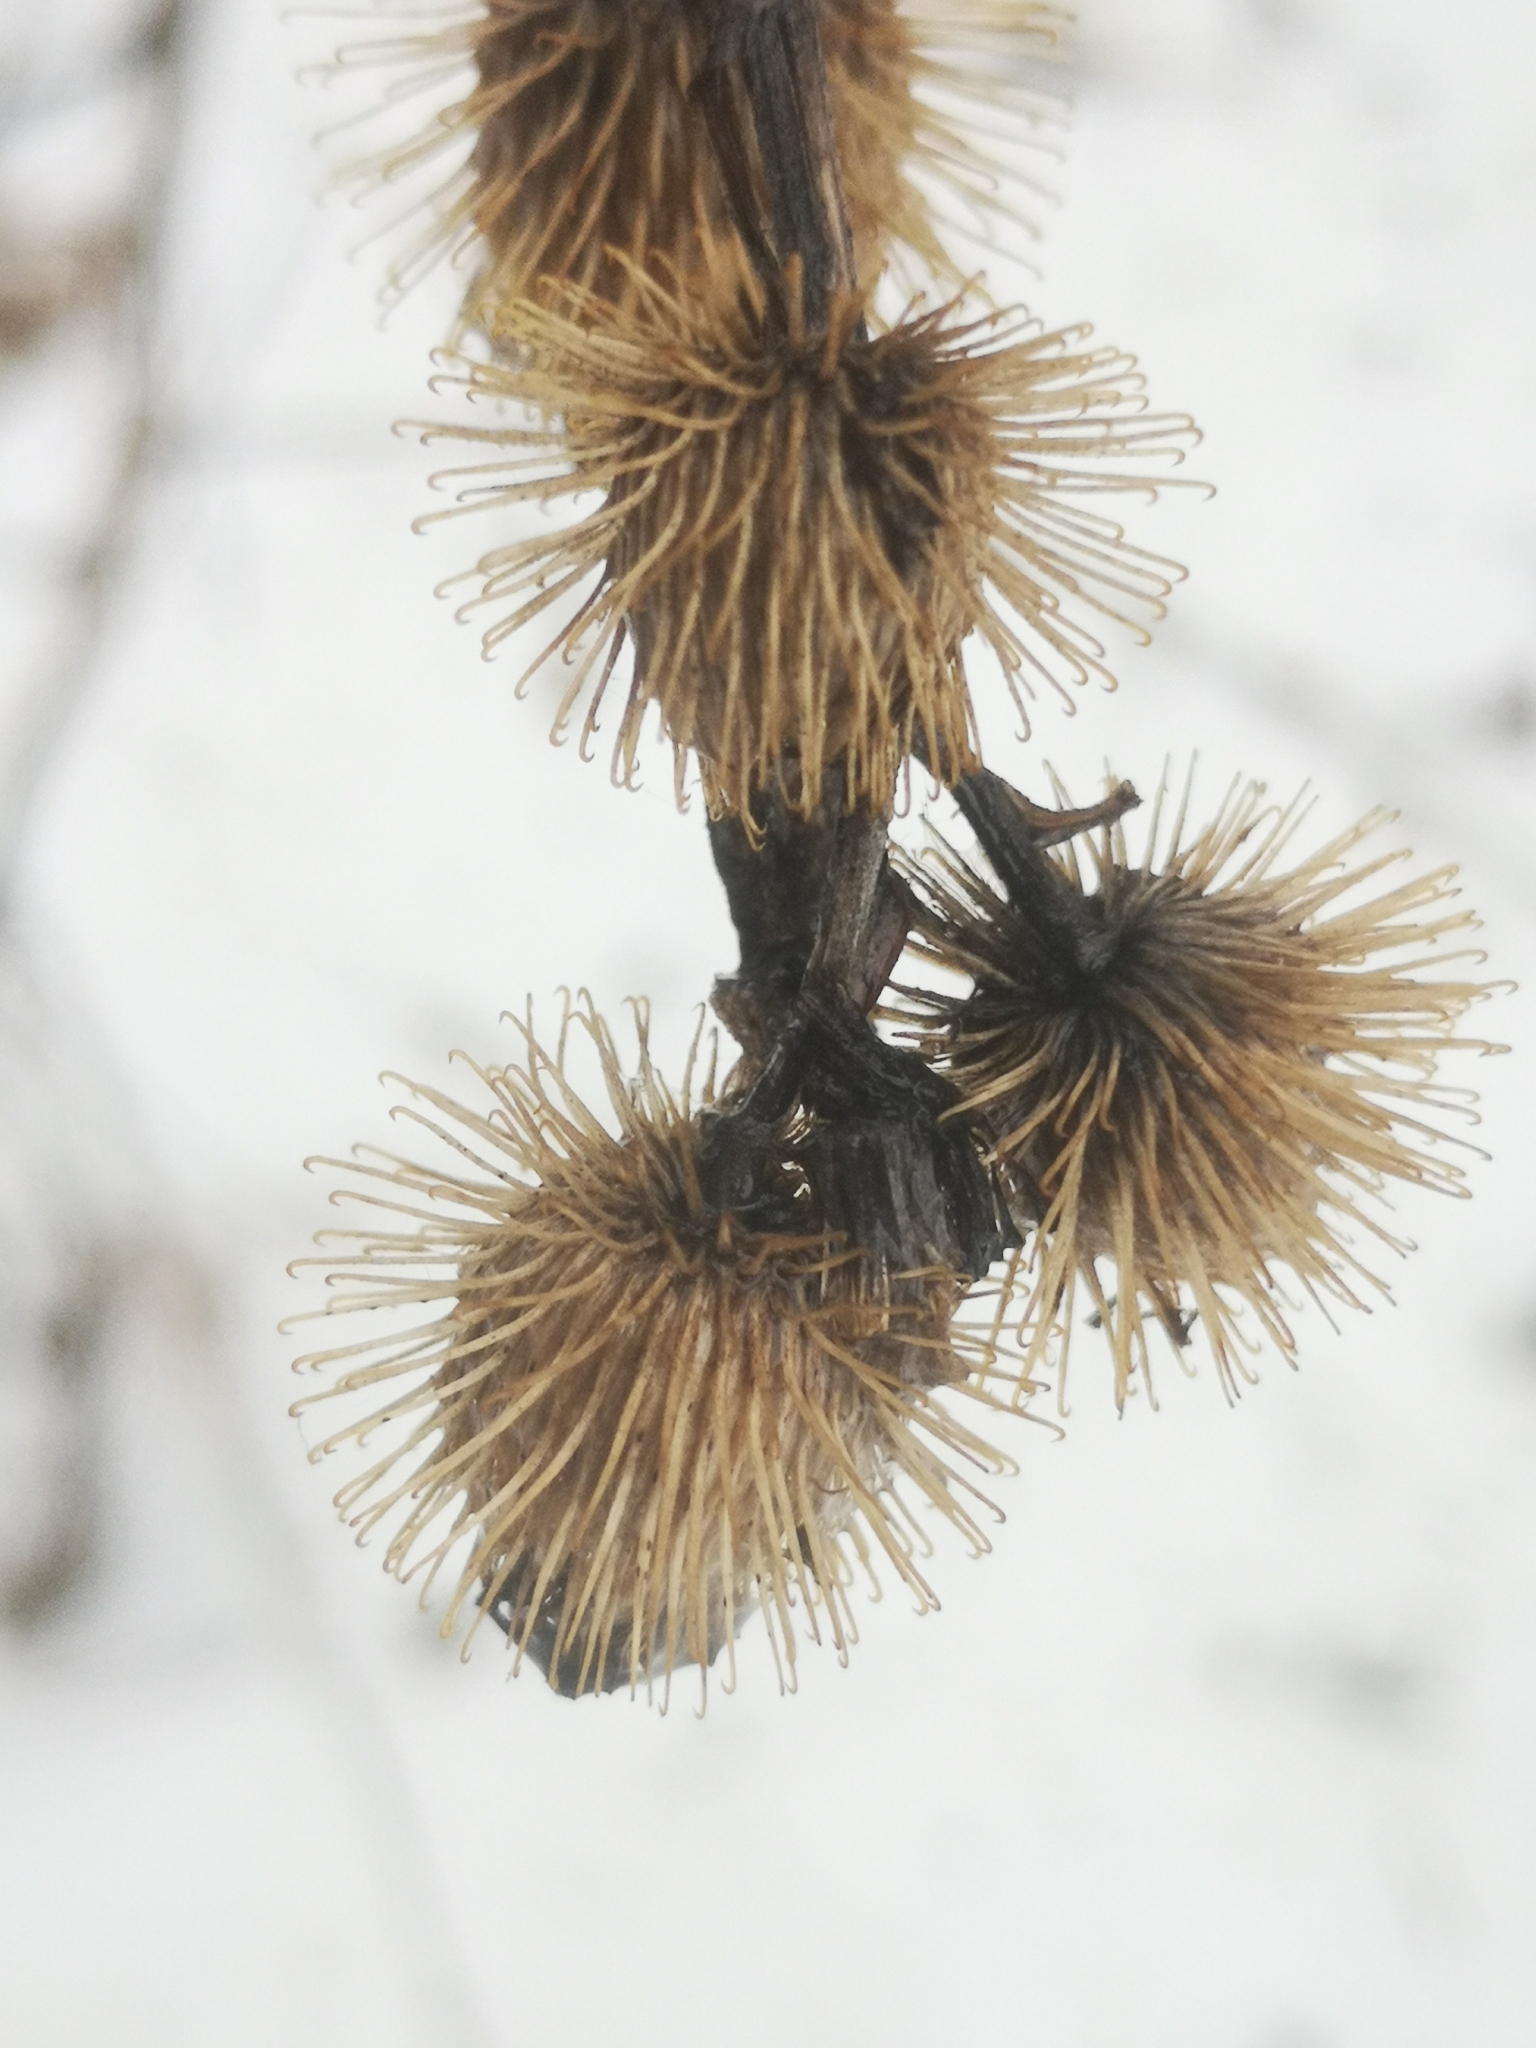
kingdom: Plantae
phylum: Tracheophyta
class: Magnoliopsida
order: Asterales
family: Asteraceae
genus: Arctium
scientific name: Arctium minus
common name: Lesser burdock
